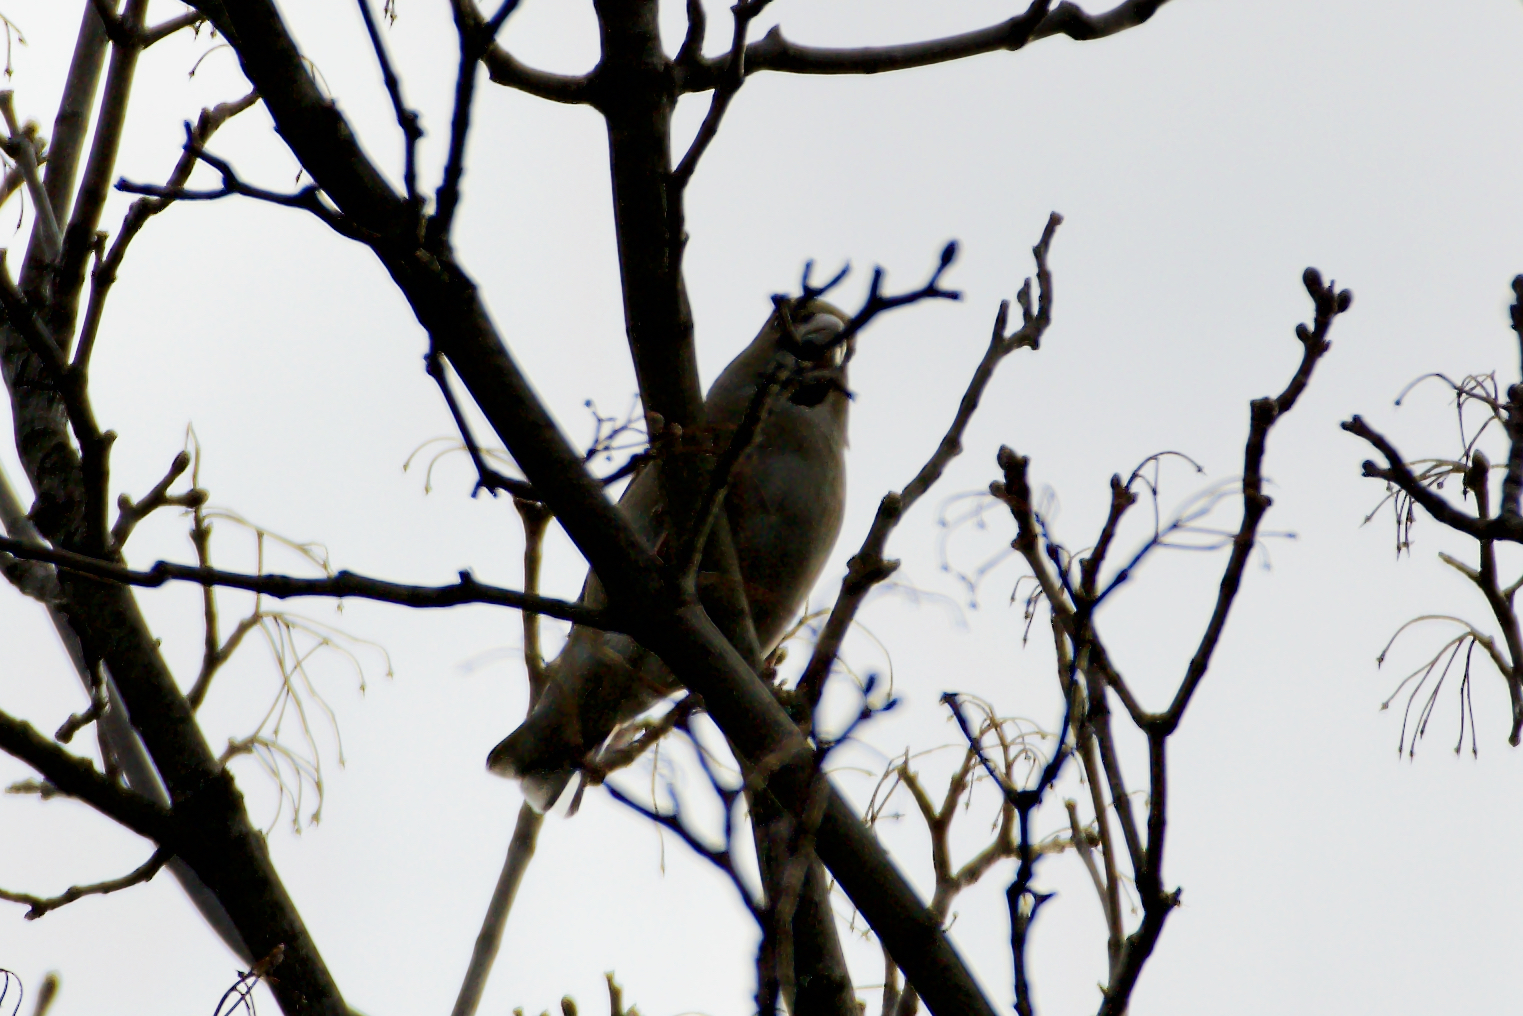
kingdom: Animalia
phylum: Chordata
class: Aves
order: Passeriformes
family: Fringillidae
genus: Coccothraustes
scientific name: Coccothraustes coccothraustes
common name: Hawfinch
